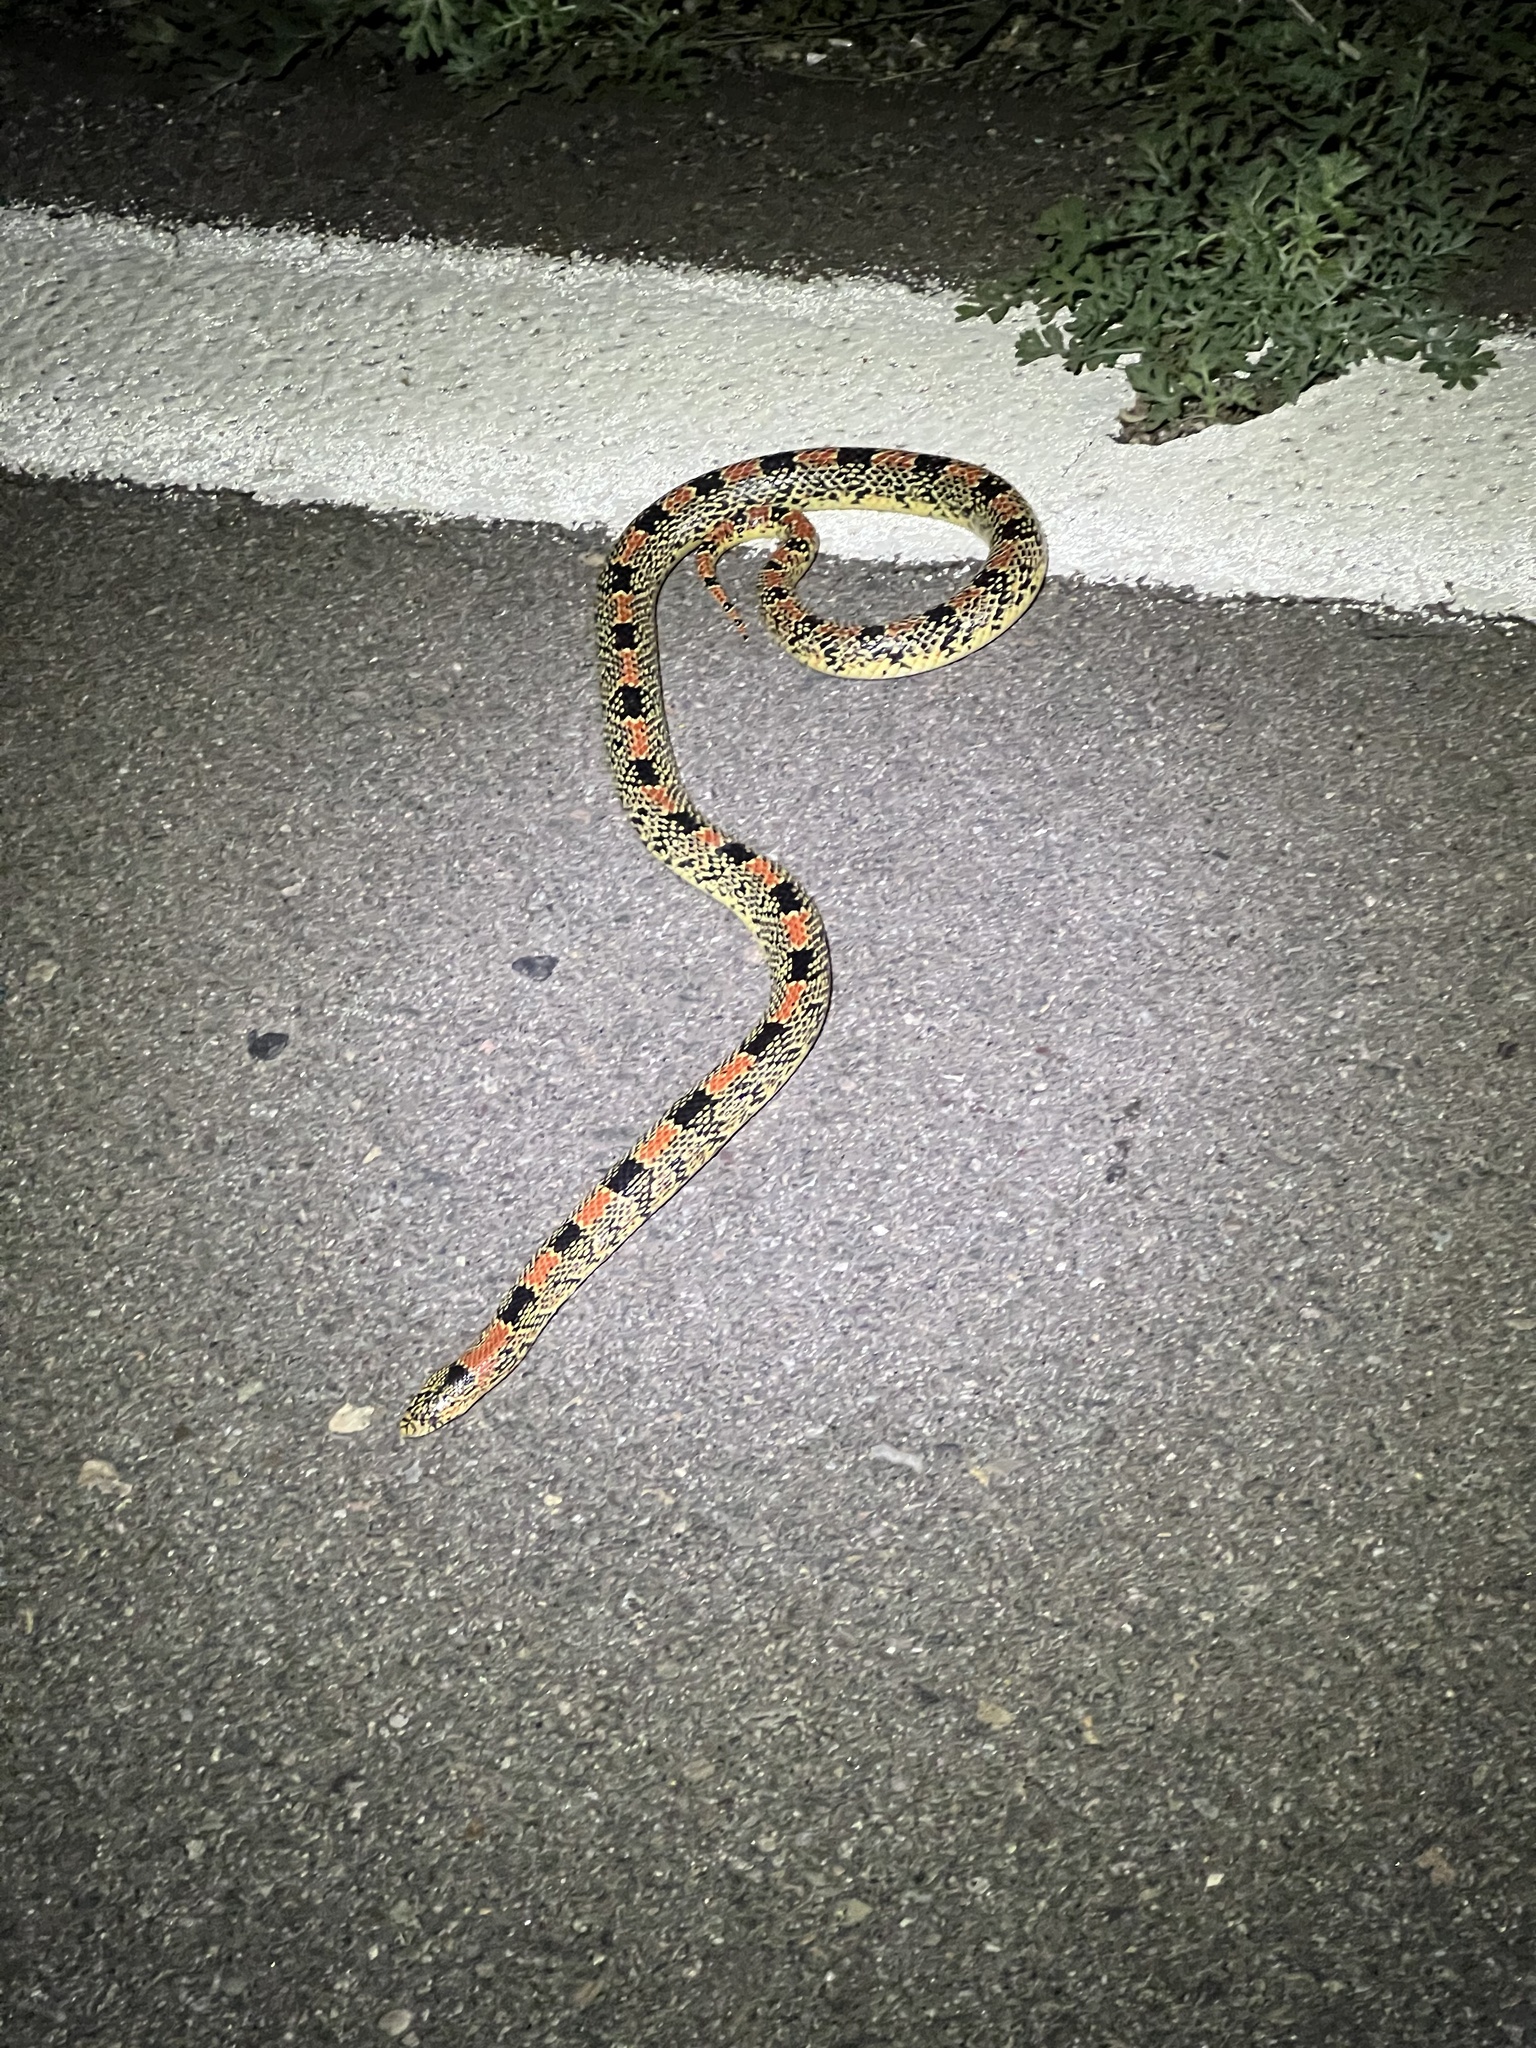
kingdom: Animalia
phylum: Chordata
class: Squamata
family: Colubridae
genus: Rhinocheilus
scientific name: Rhinocheilus lecontei
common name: Longnose snake
